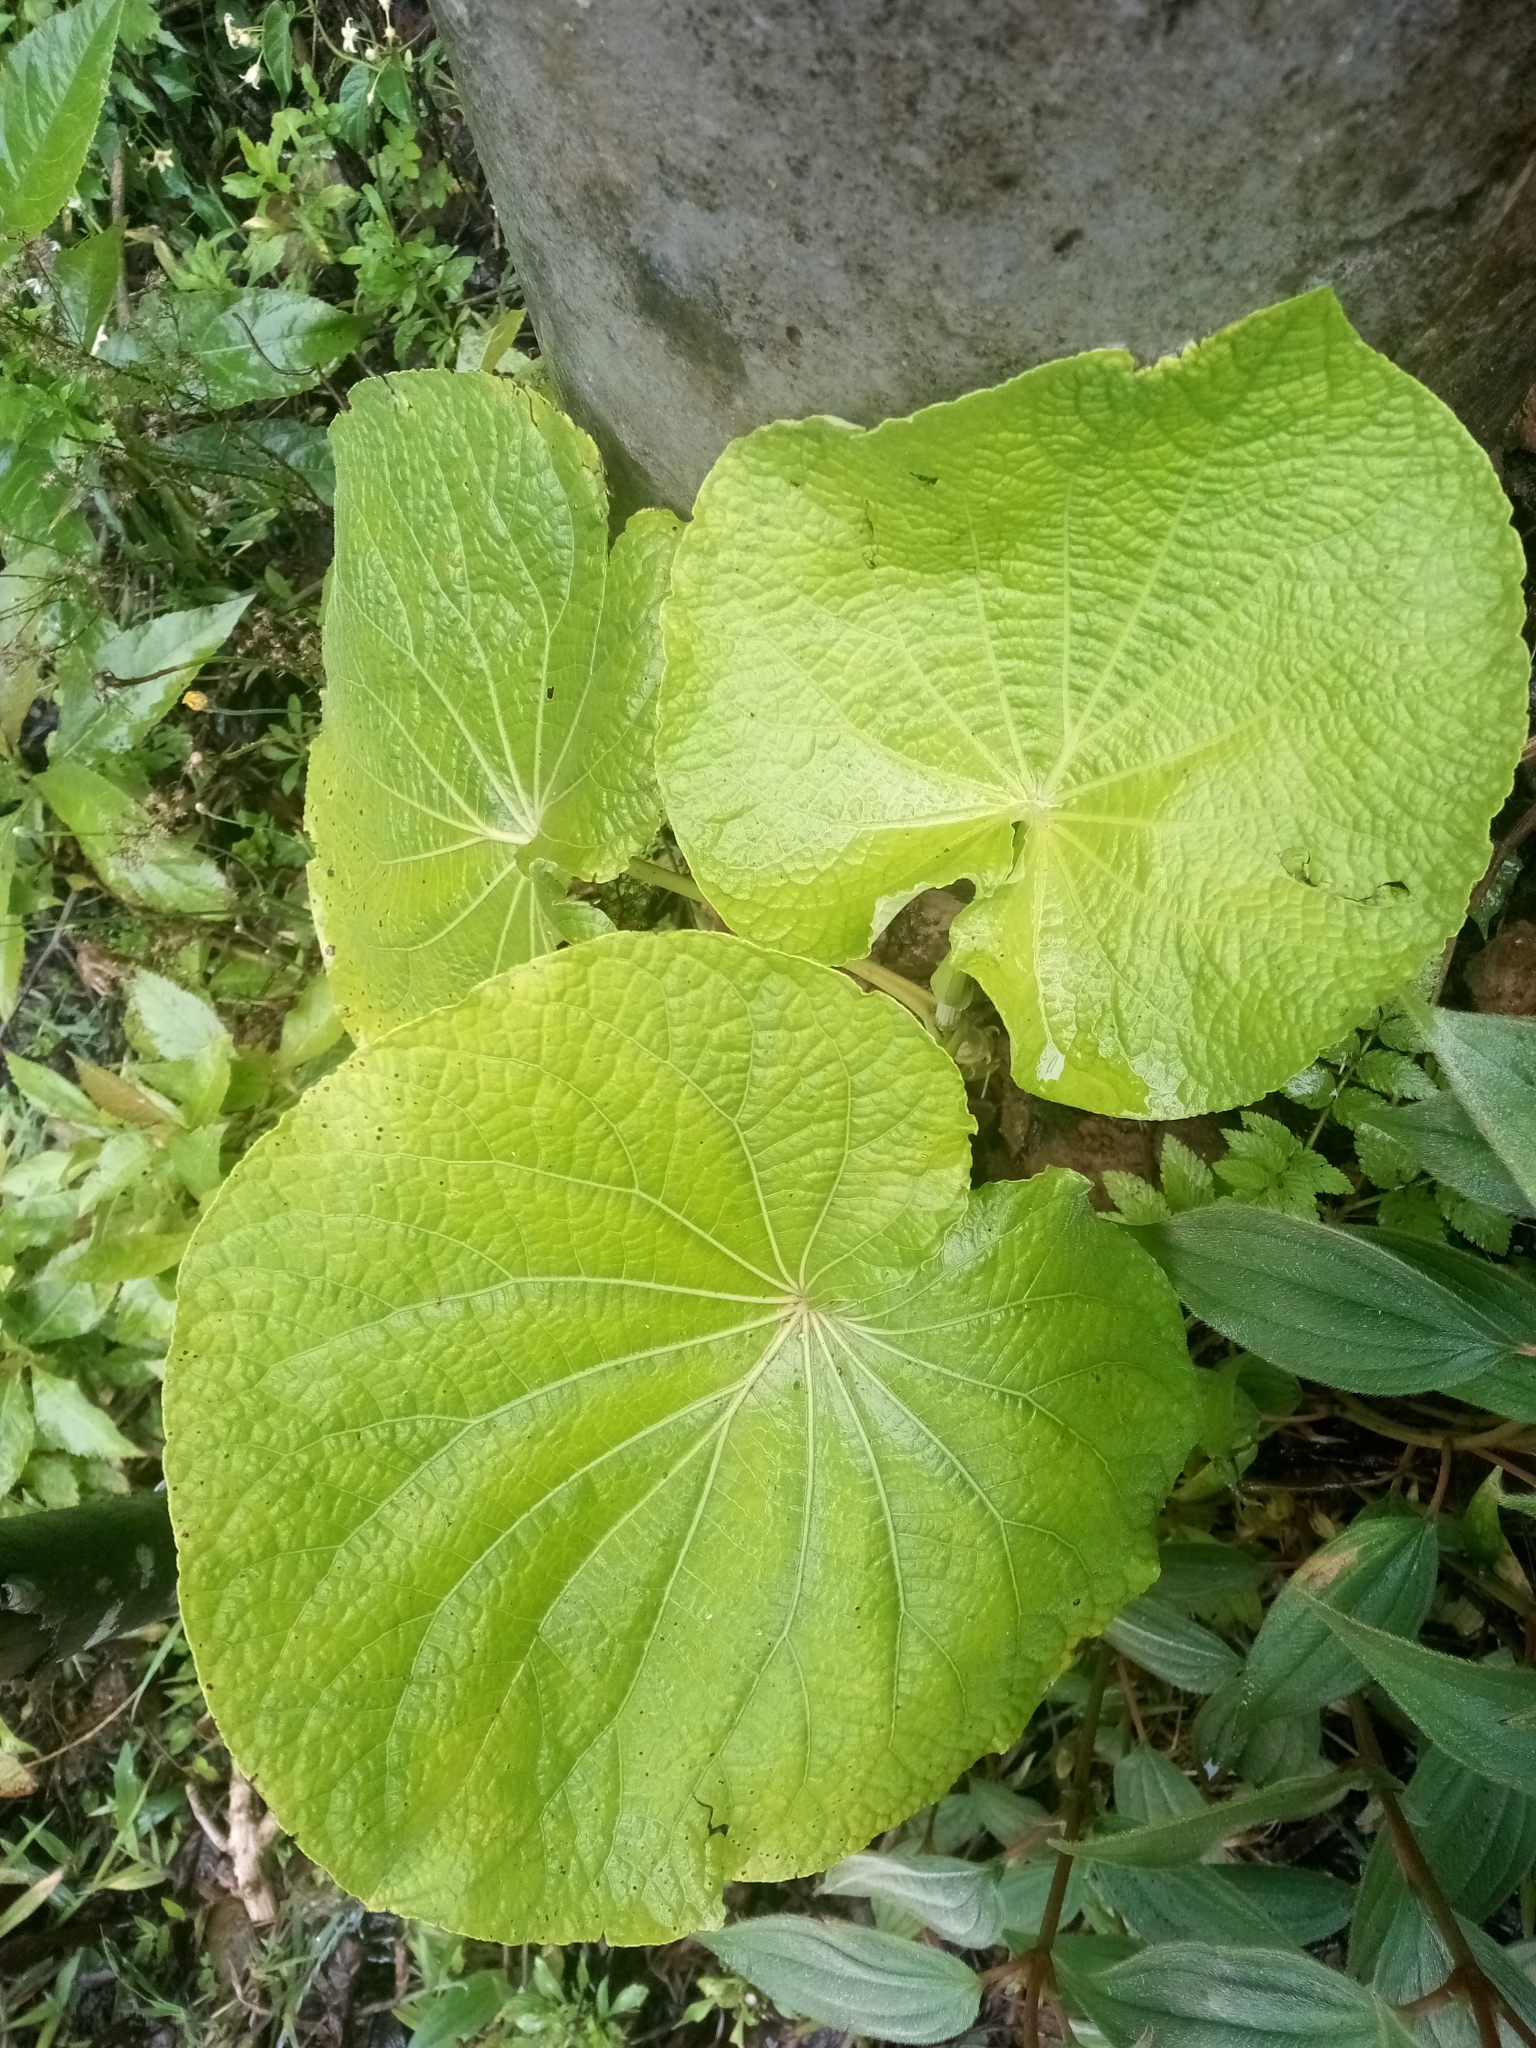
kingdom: Plantae
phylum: Tracheophyta
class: Magnoliopsida
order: Piperales
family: Piperaceae
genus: Piper
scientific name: Piper umbellatum
